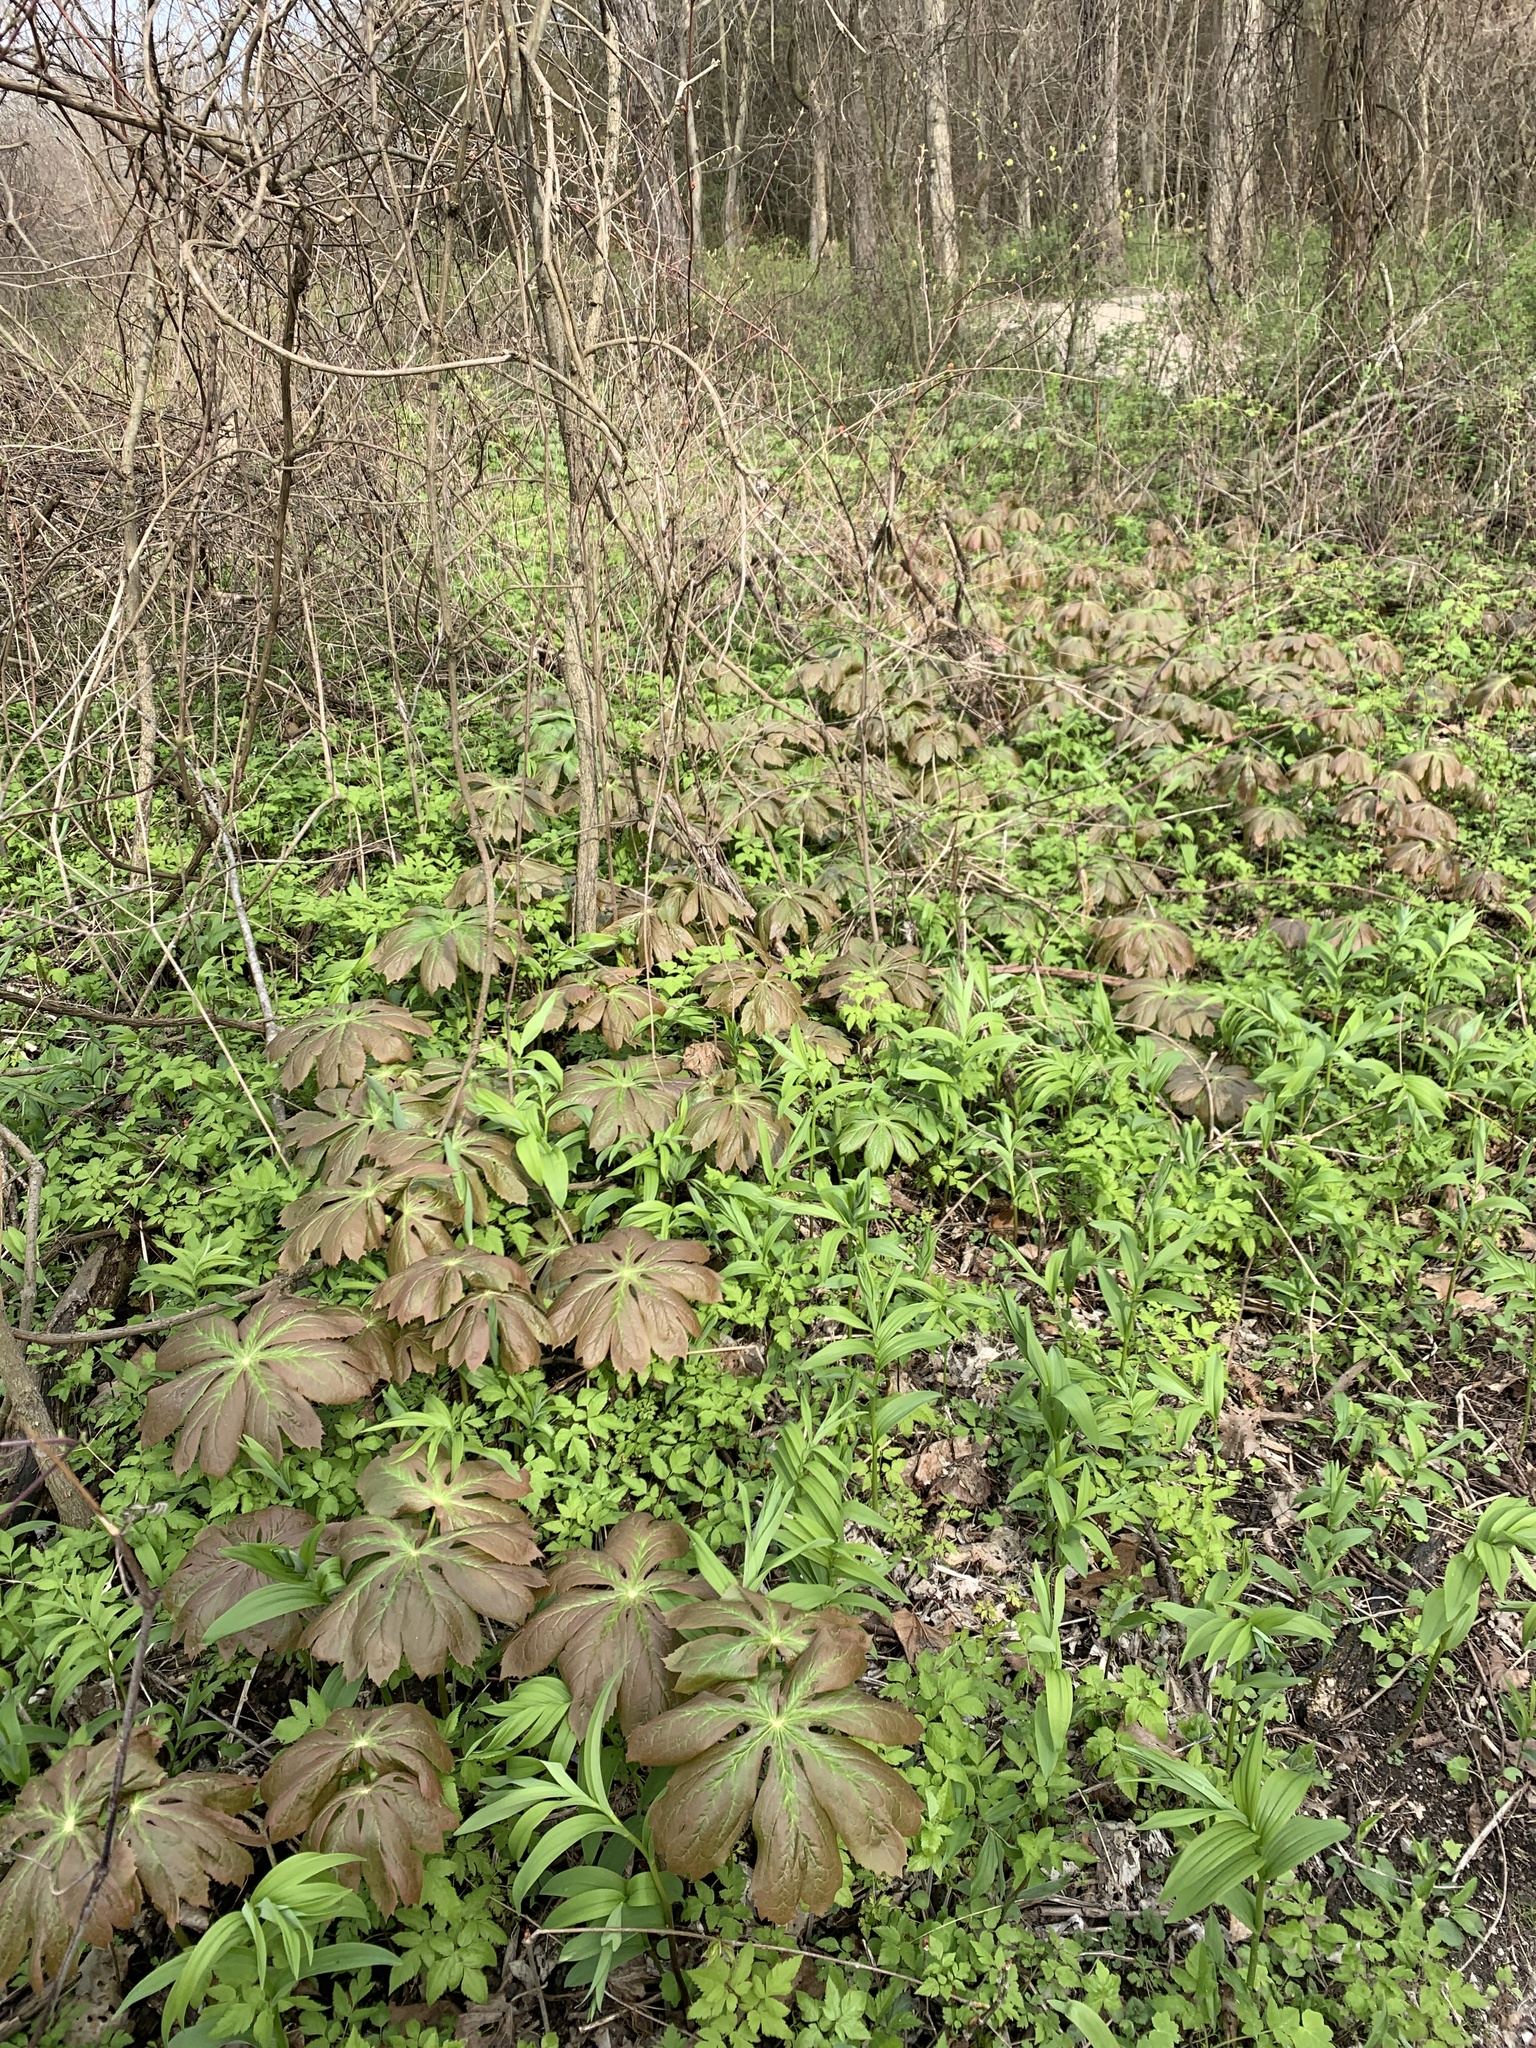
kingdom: Plantae
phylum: Tracheophyta
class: Magnoliopsida
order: Ranunculales
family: Berberidaceae
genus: Podophyllum
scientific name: Podophyllum peltatum
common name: Wild mandrake
